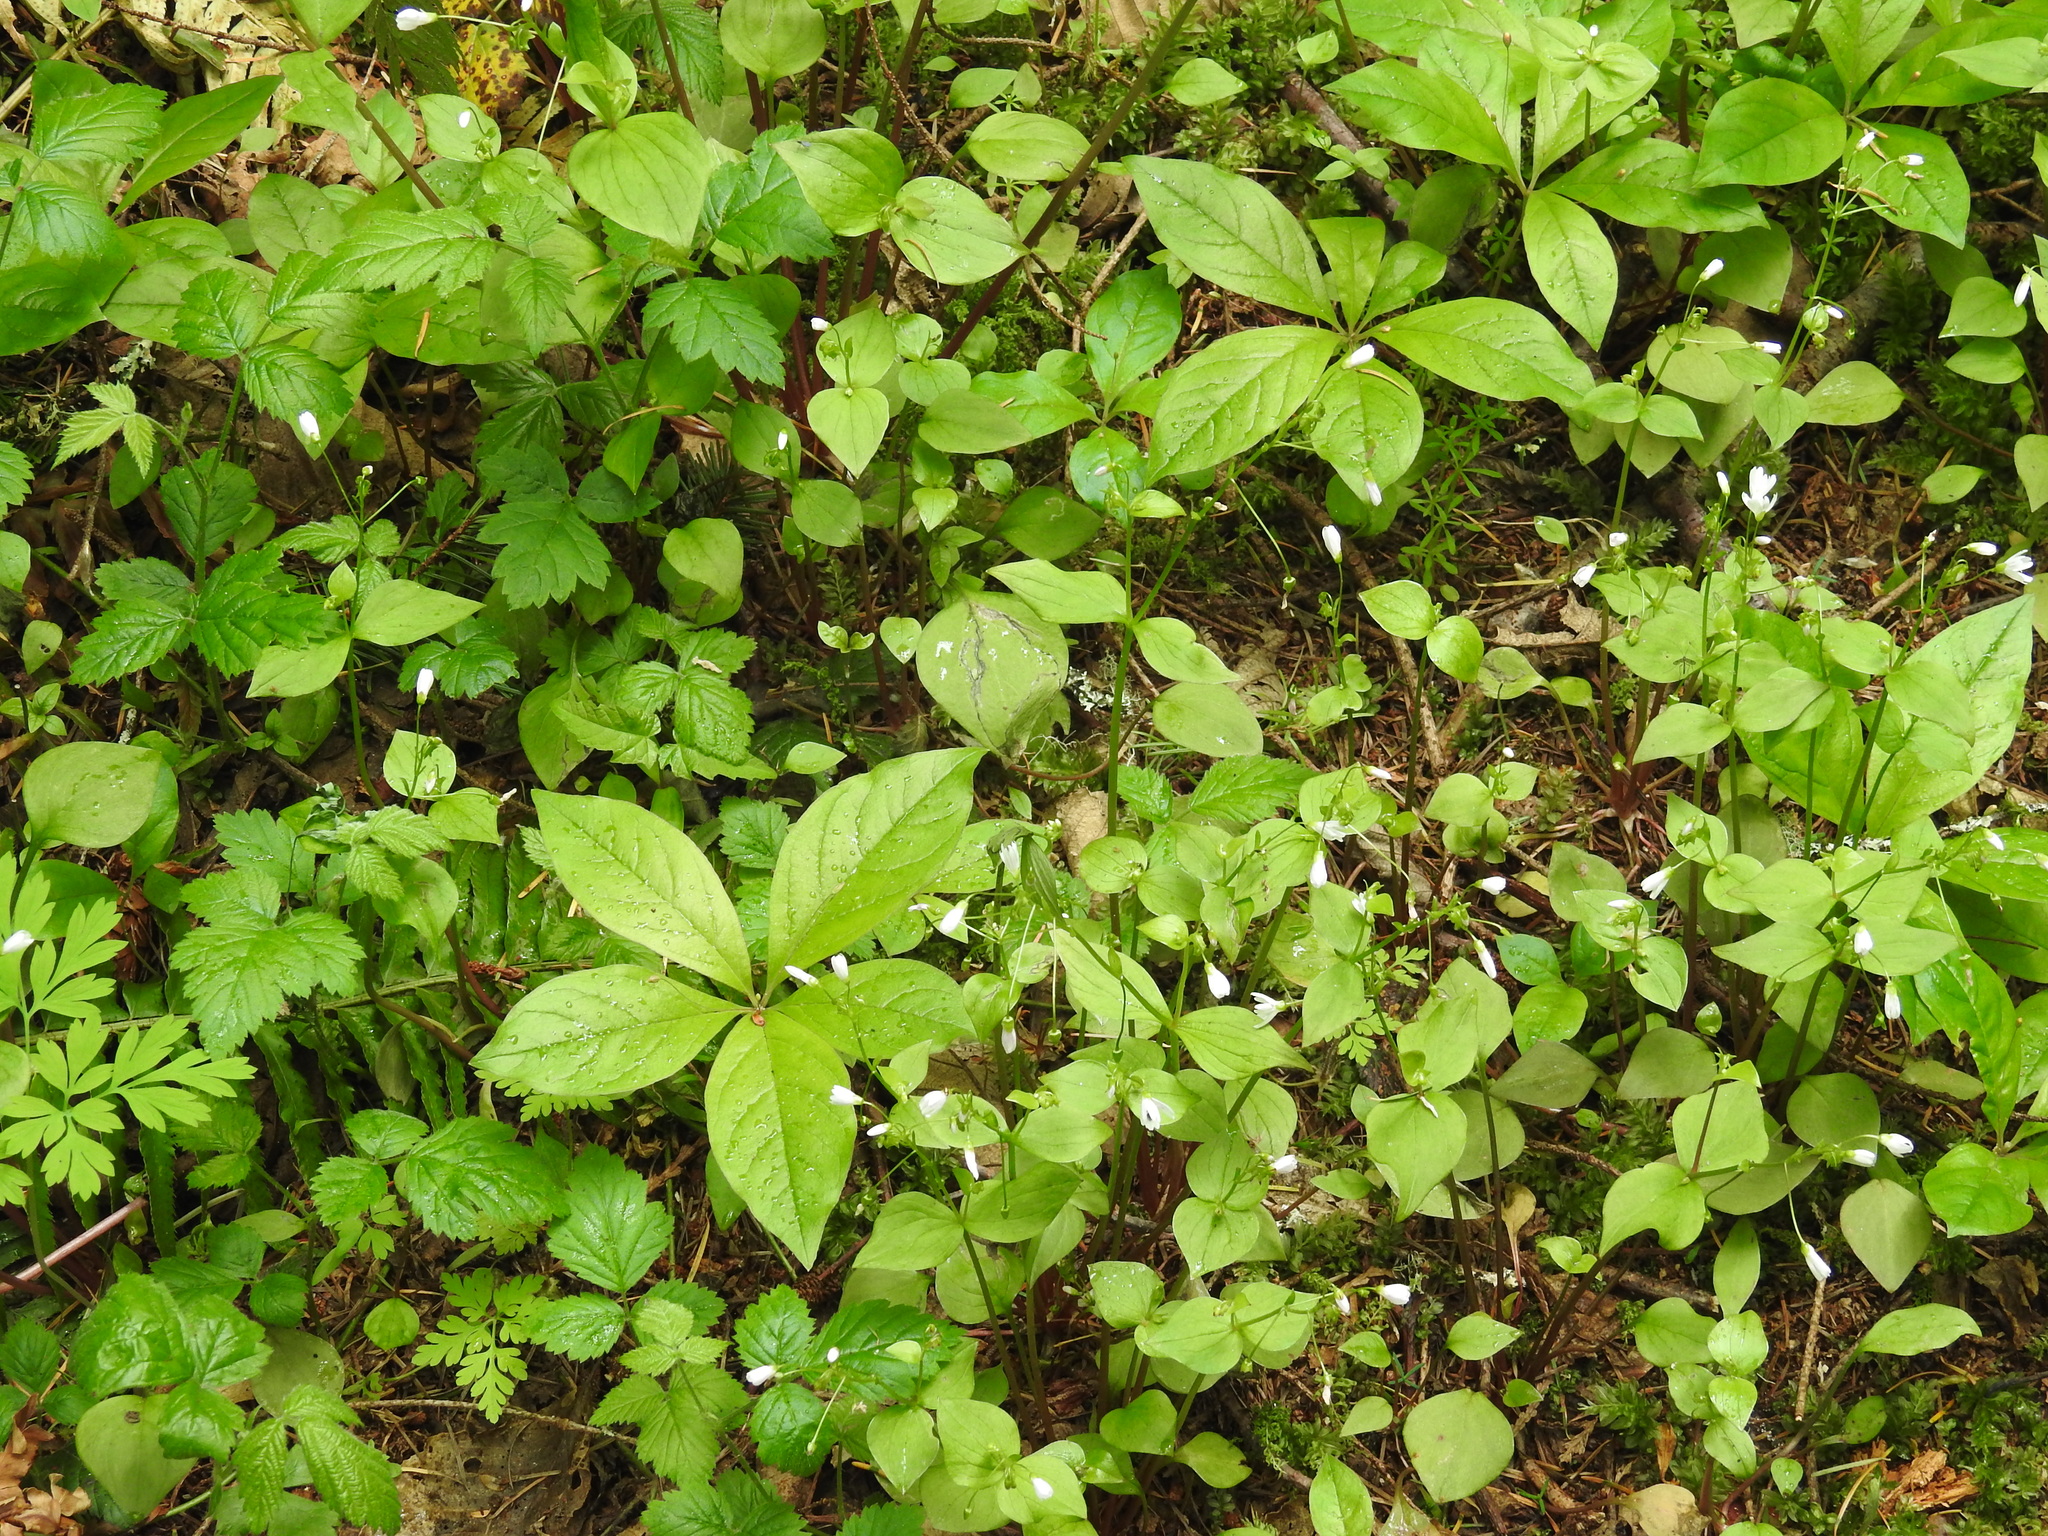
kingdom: Plantae
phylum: Tracheophyta
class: Magnoliopsida
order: Caryophyllales
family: Montiaceae
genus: Claytonia
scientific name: Claytonia sibirica
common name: Pink purslane
